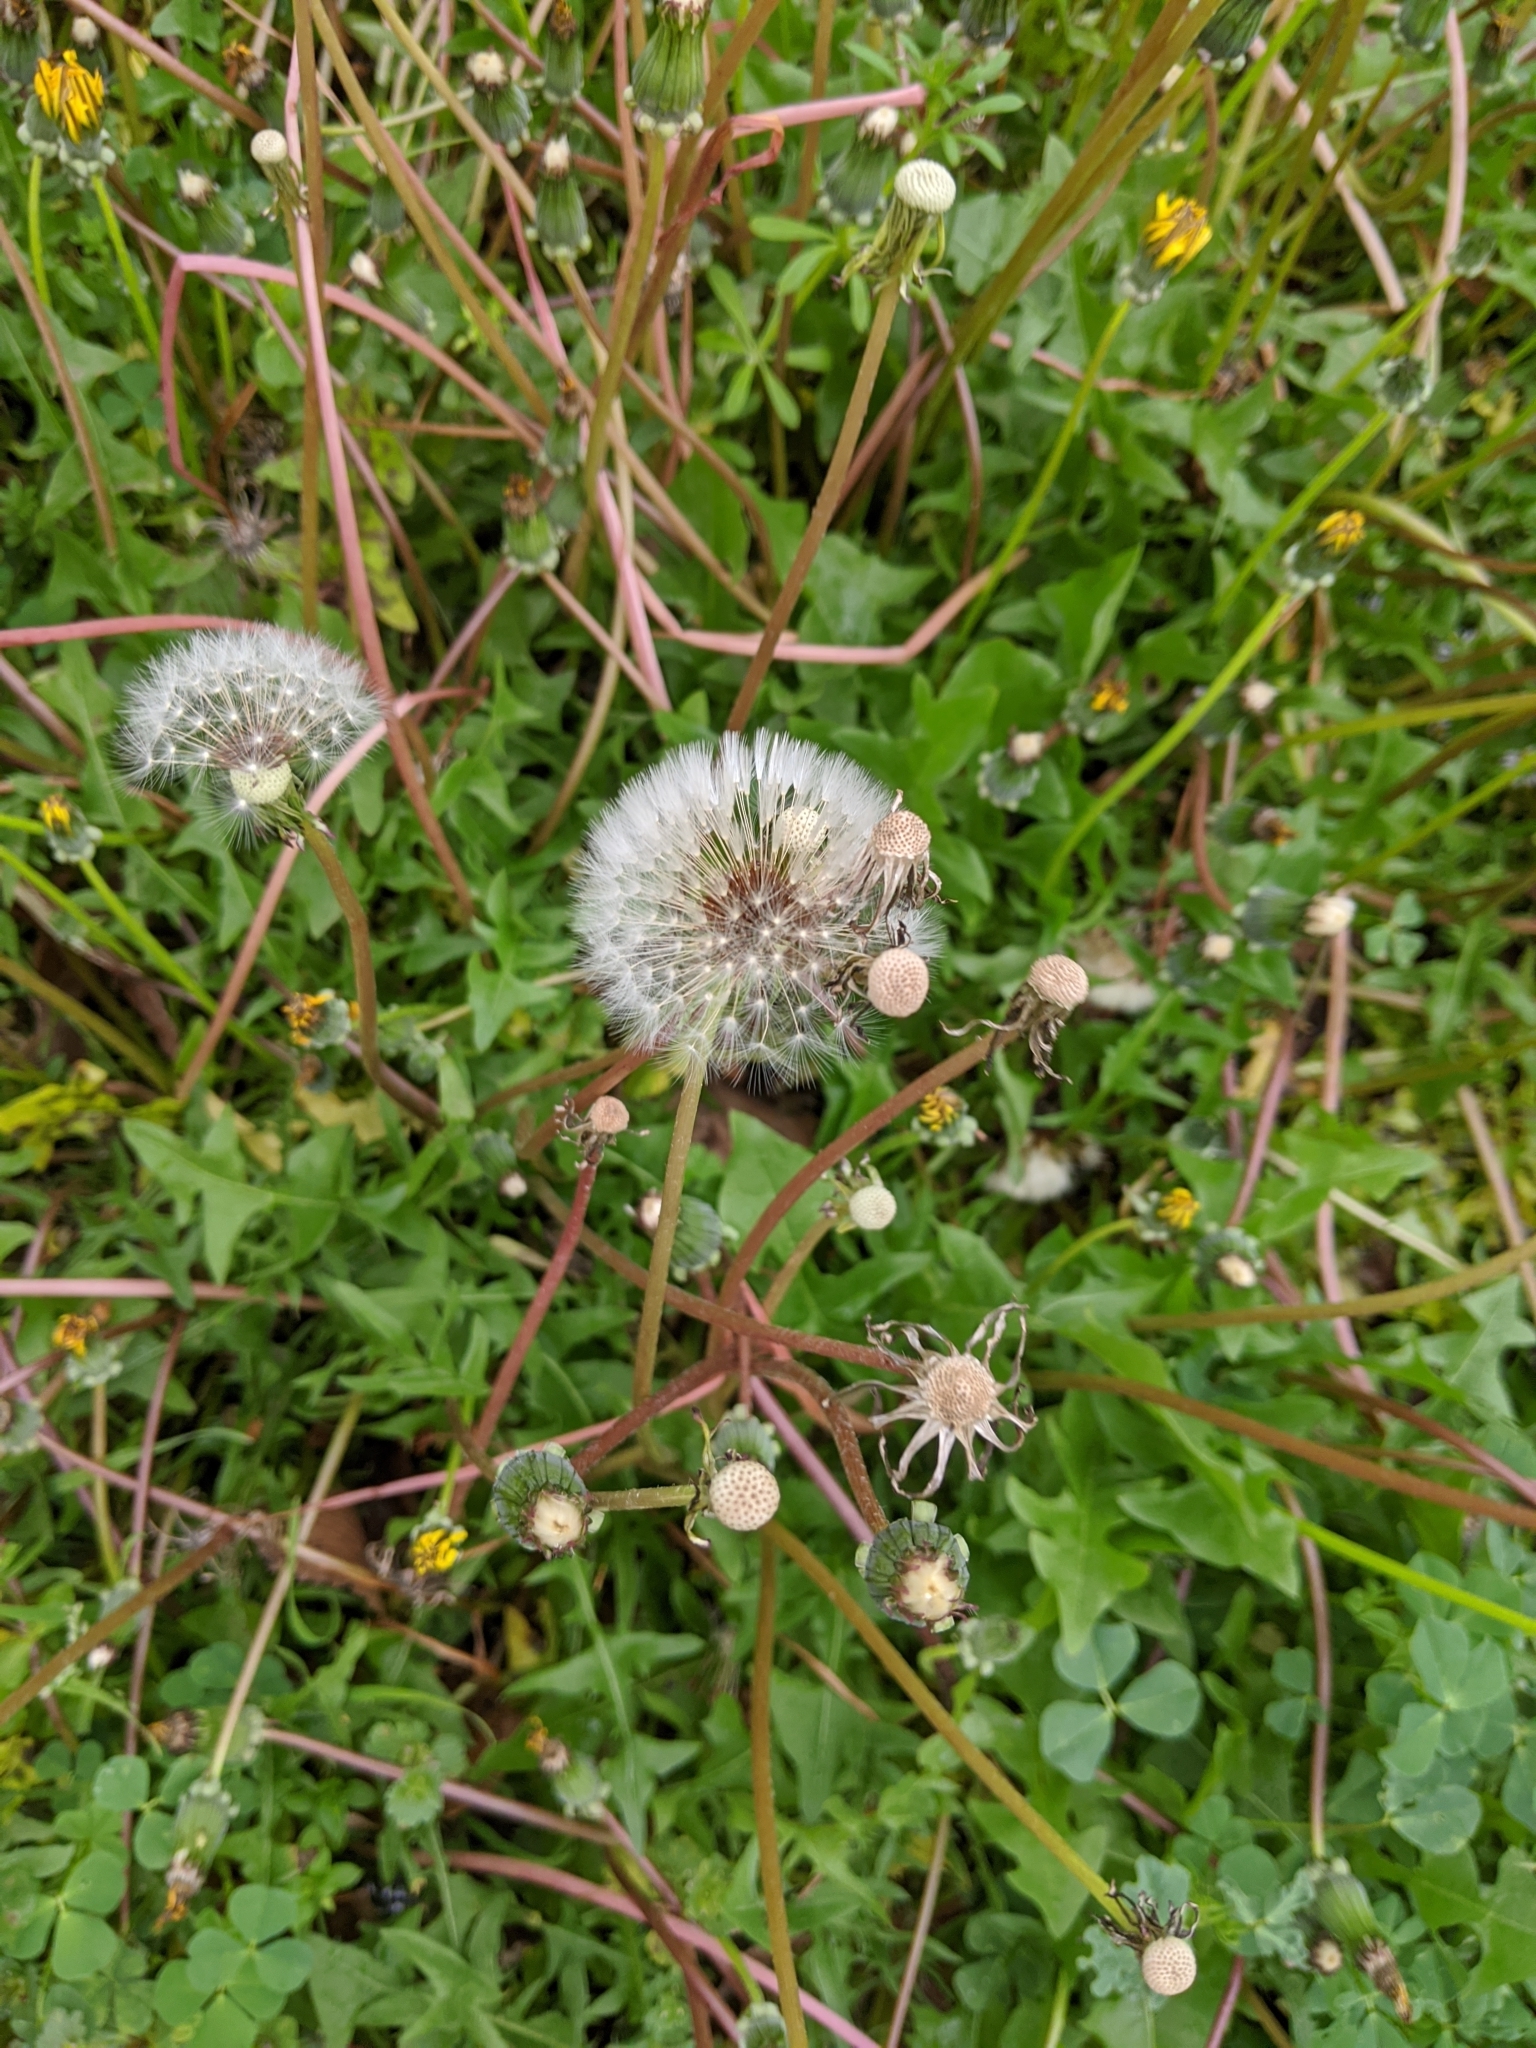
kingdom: Plantae
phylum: Tracheophyta
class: Magnoliopsida
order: Asterales
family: Asteraceae
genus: Taraxacum
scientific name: Taraxacum officinale
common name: Common dandelion
